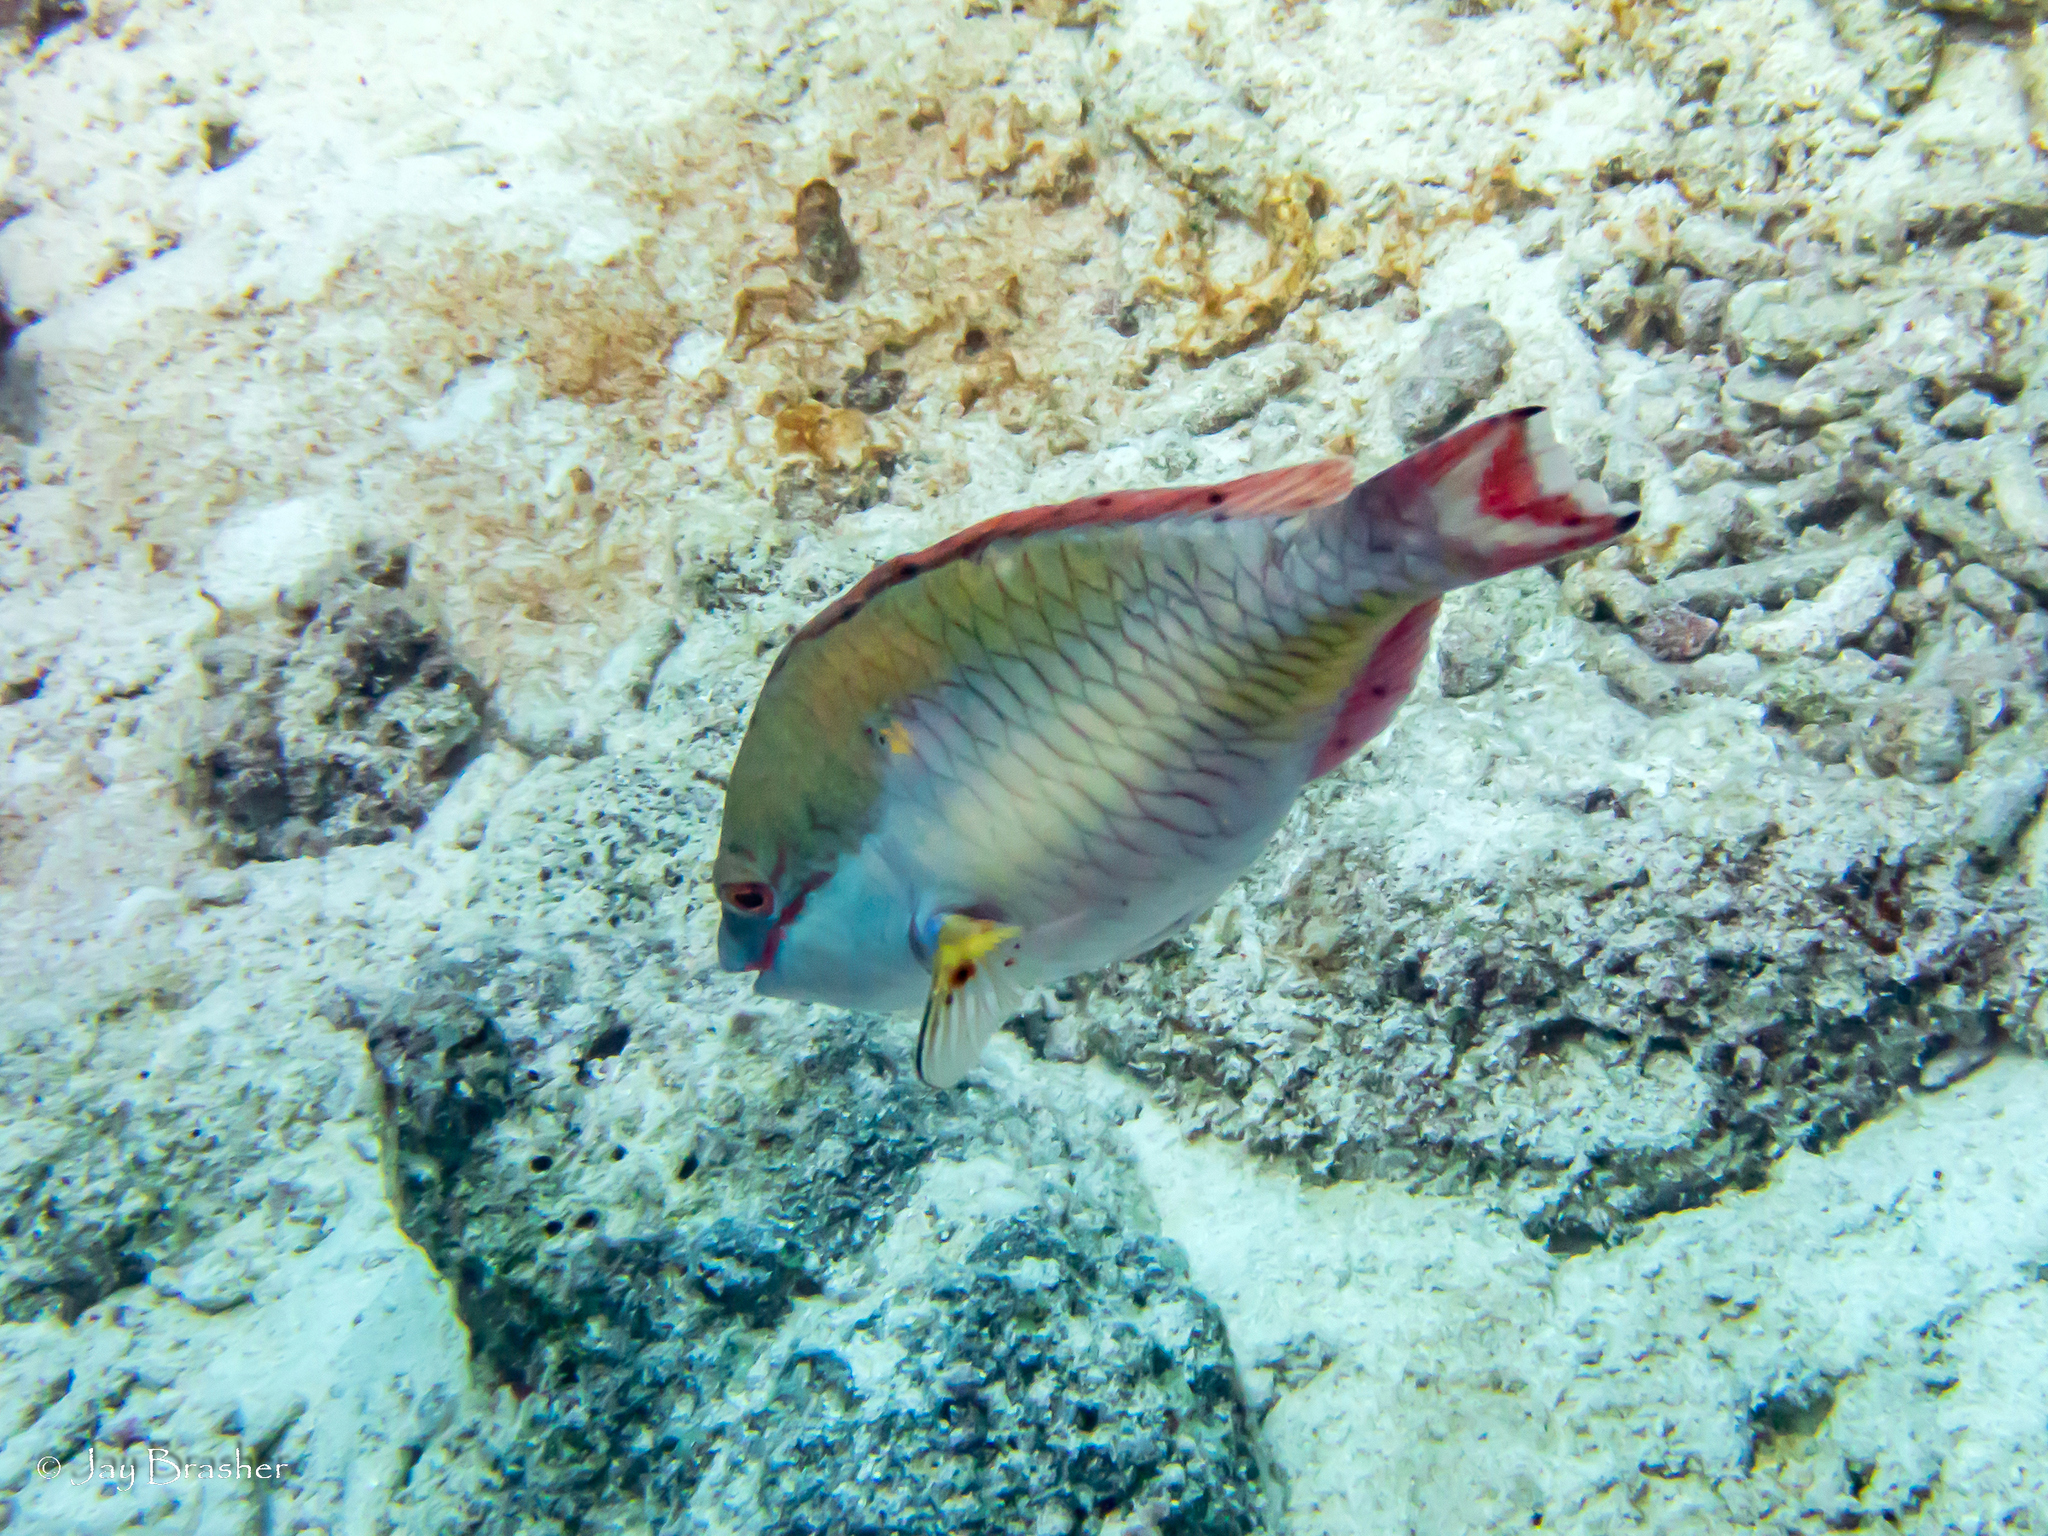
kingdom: Animalia
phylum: Chordata
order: Perciformes
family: Scaridae
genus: Sparisoma
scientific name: Sparisoma aurofrenatum
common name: Redband parrotfish
